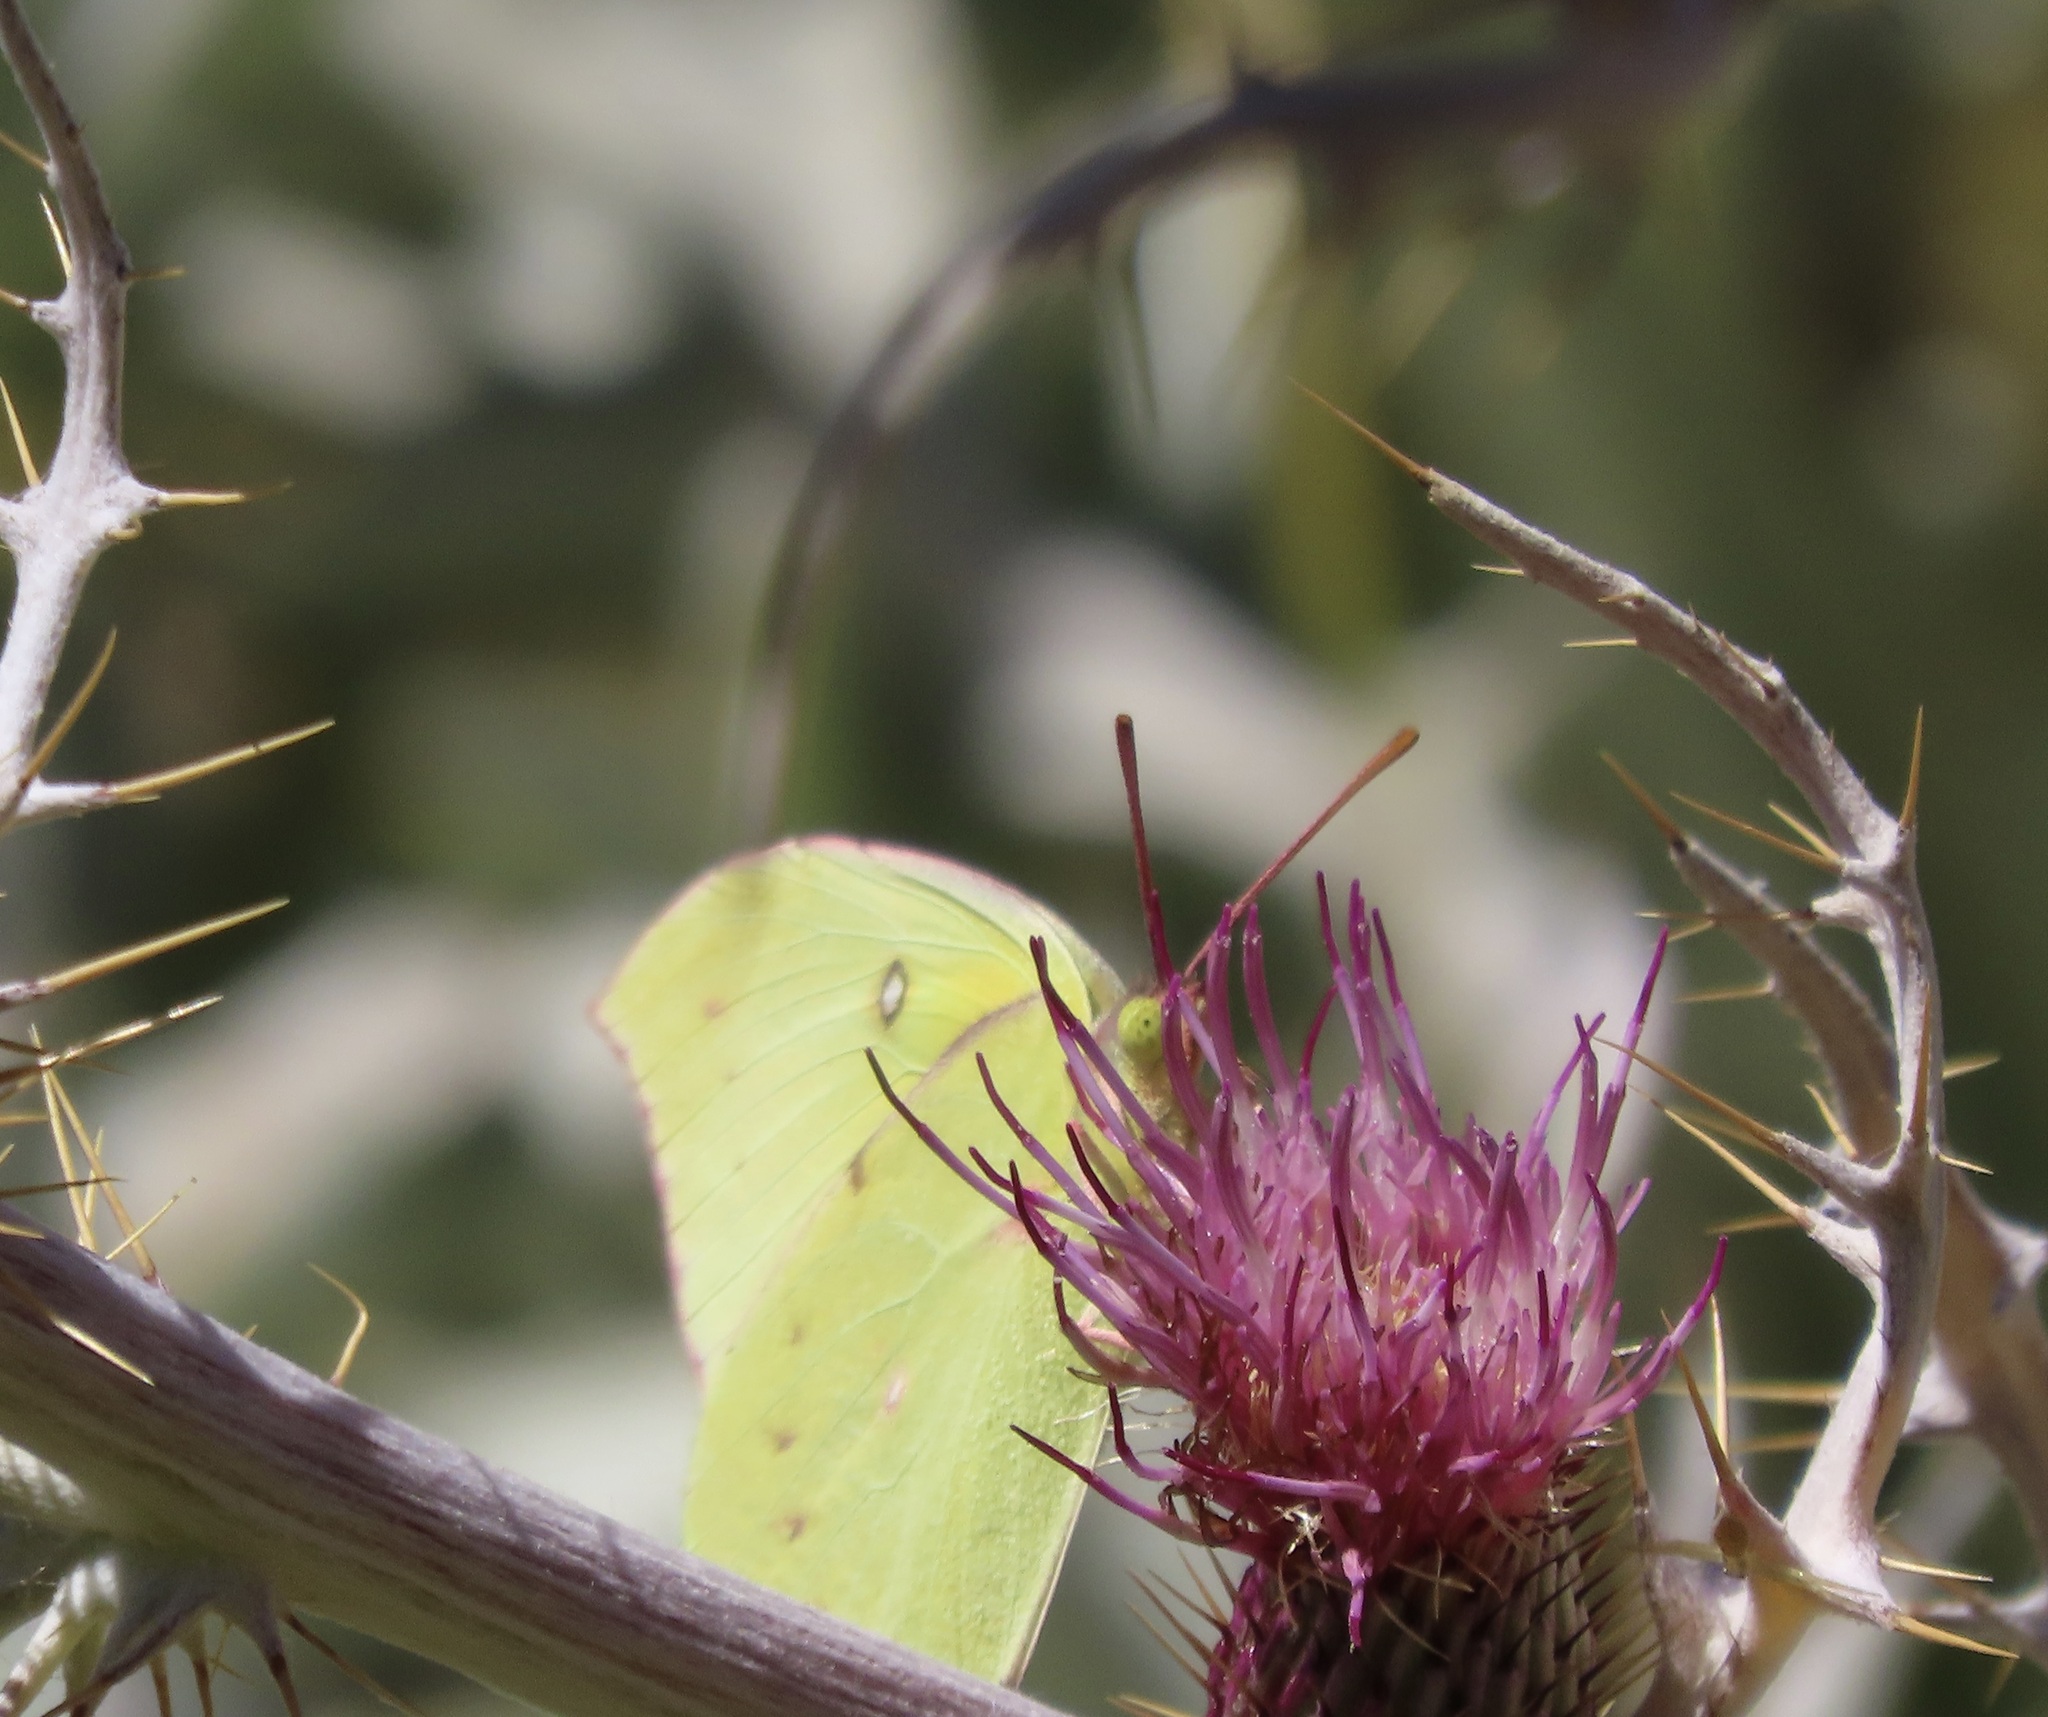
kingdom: Animalia
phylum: Arthropoda
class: Insecta
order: Lepidoptera
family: Pieridae
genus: Zerene
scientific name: Zerene eurydice
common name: California dogface
